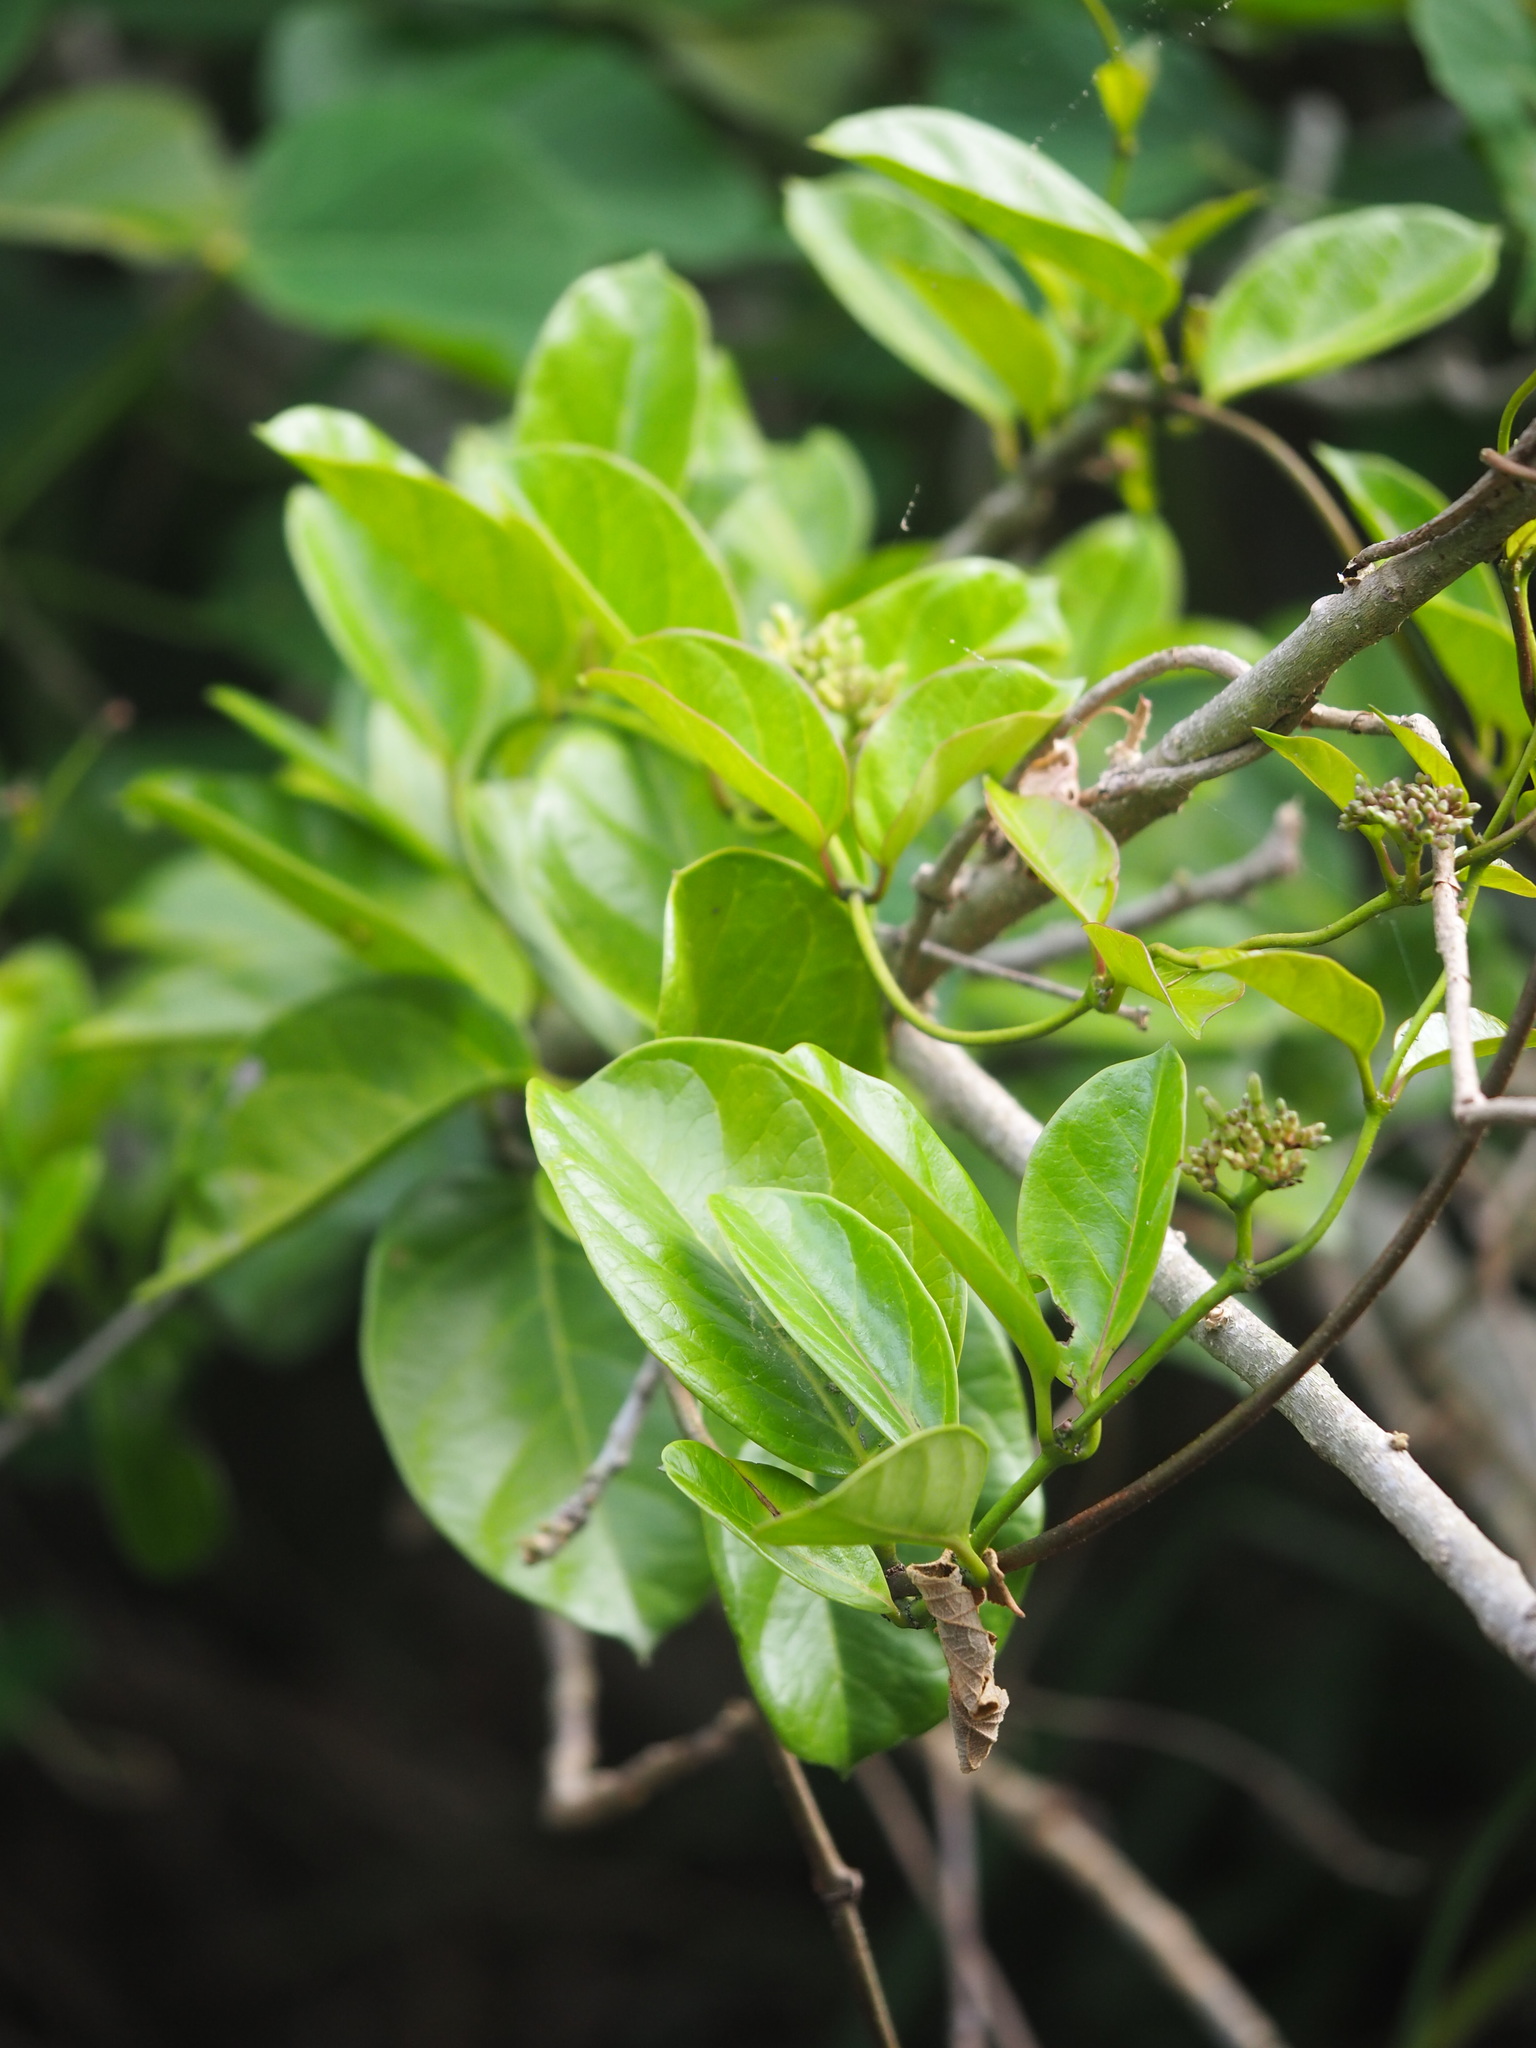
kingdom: Plantae
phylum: Tracheophyta
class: Magnoliopsida
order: Gentianales
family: Apocynaceae
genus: Parsonsia
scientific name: Parsonsia alboflavescens
